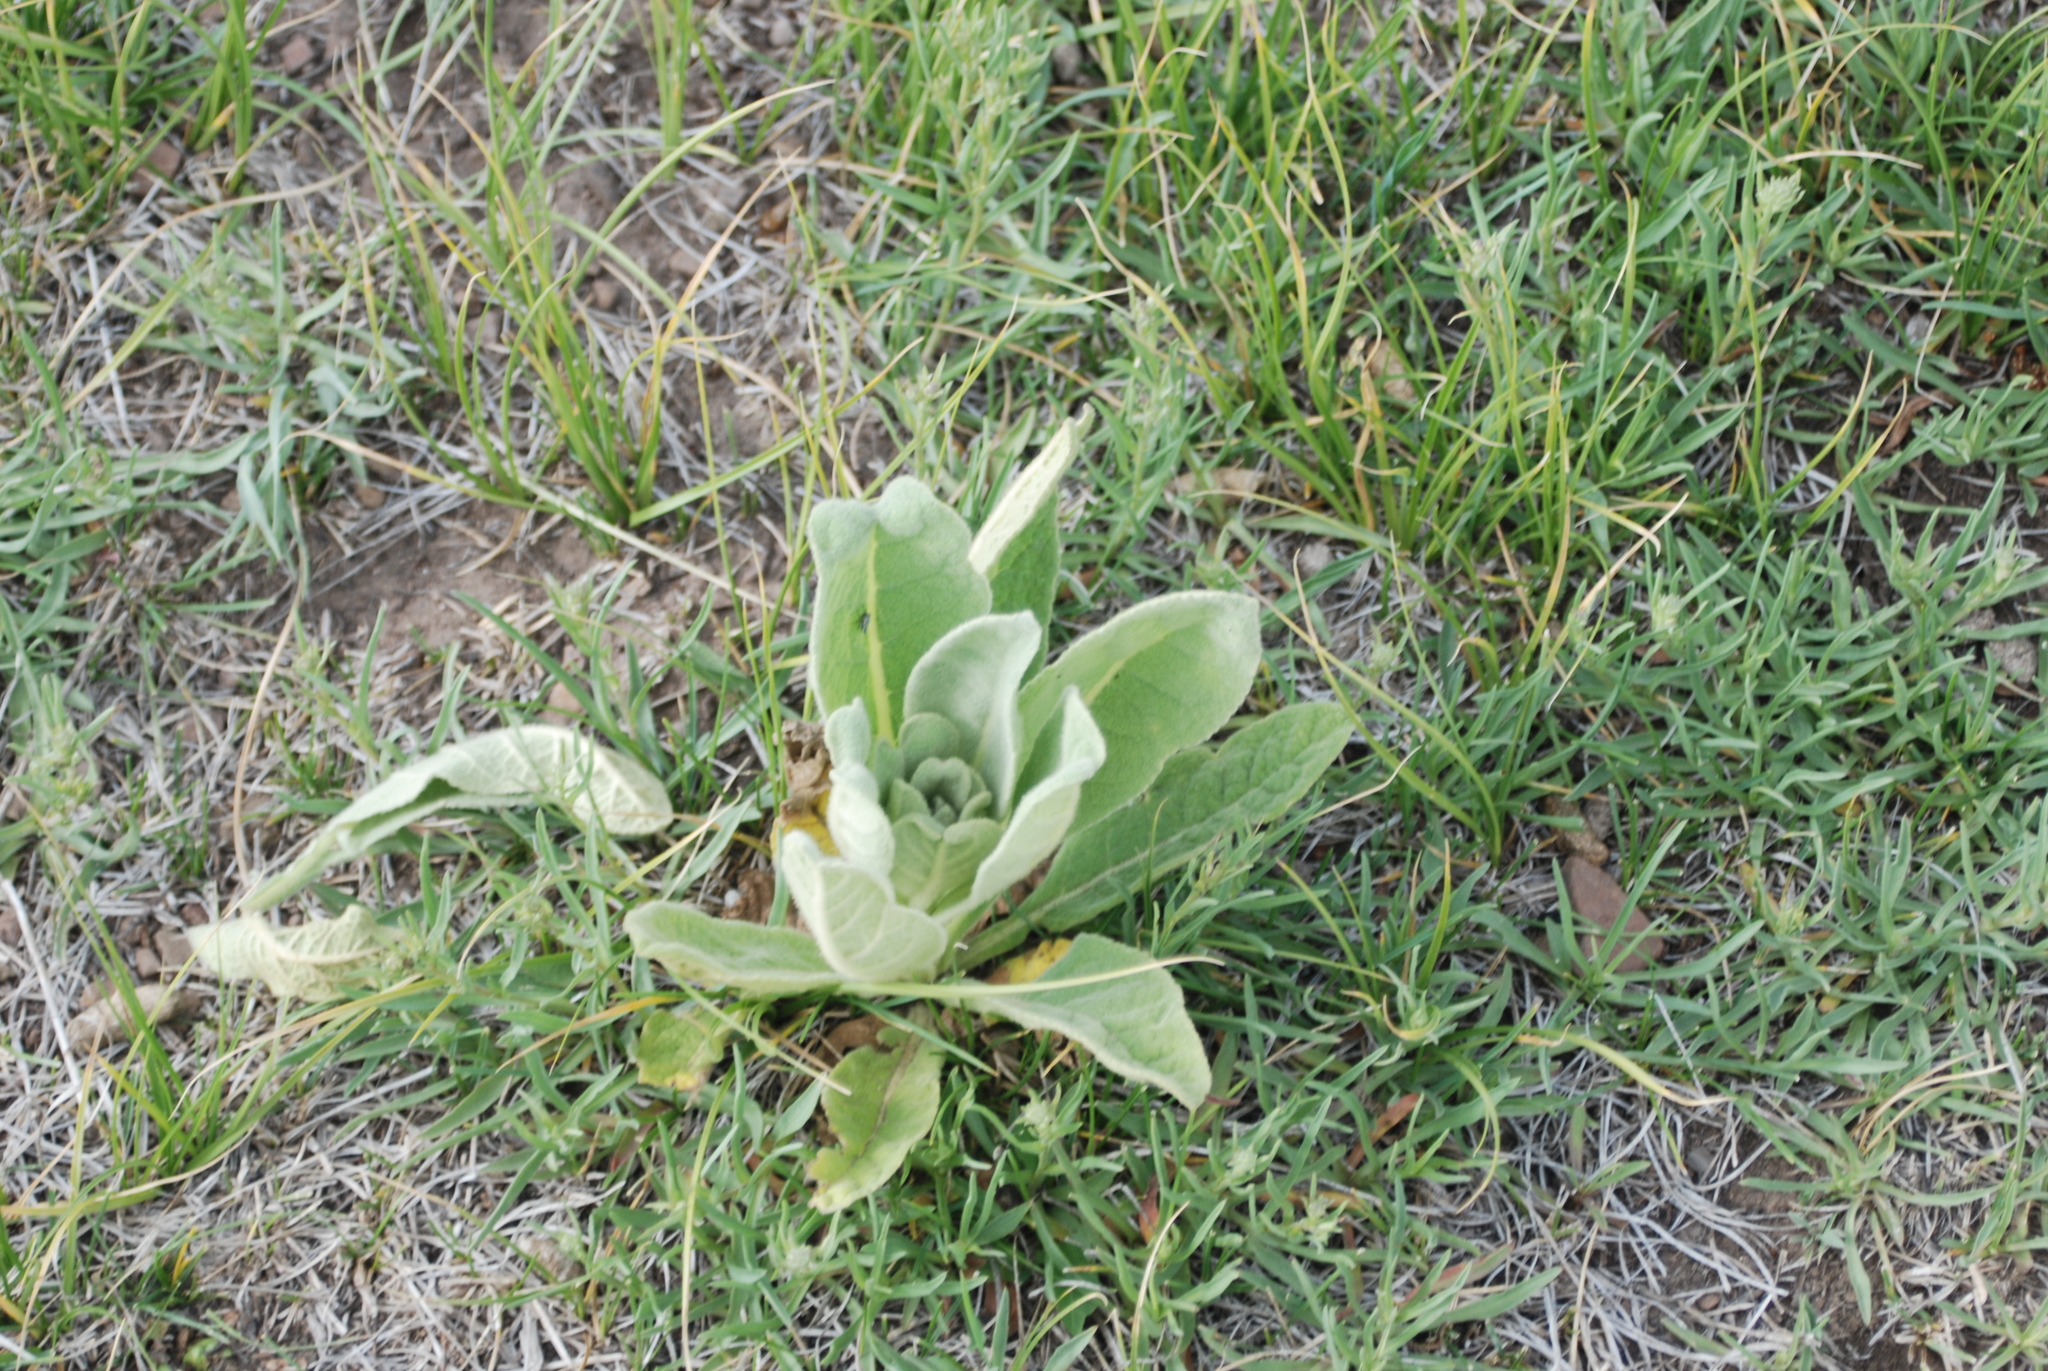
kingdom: Plantae
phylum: Tracheophyta
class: Magnoliopsida
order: Lamiales
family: Scrophulariaceae
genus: Verbascum
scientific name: Verbascum thapsus
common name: Common mullein
